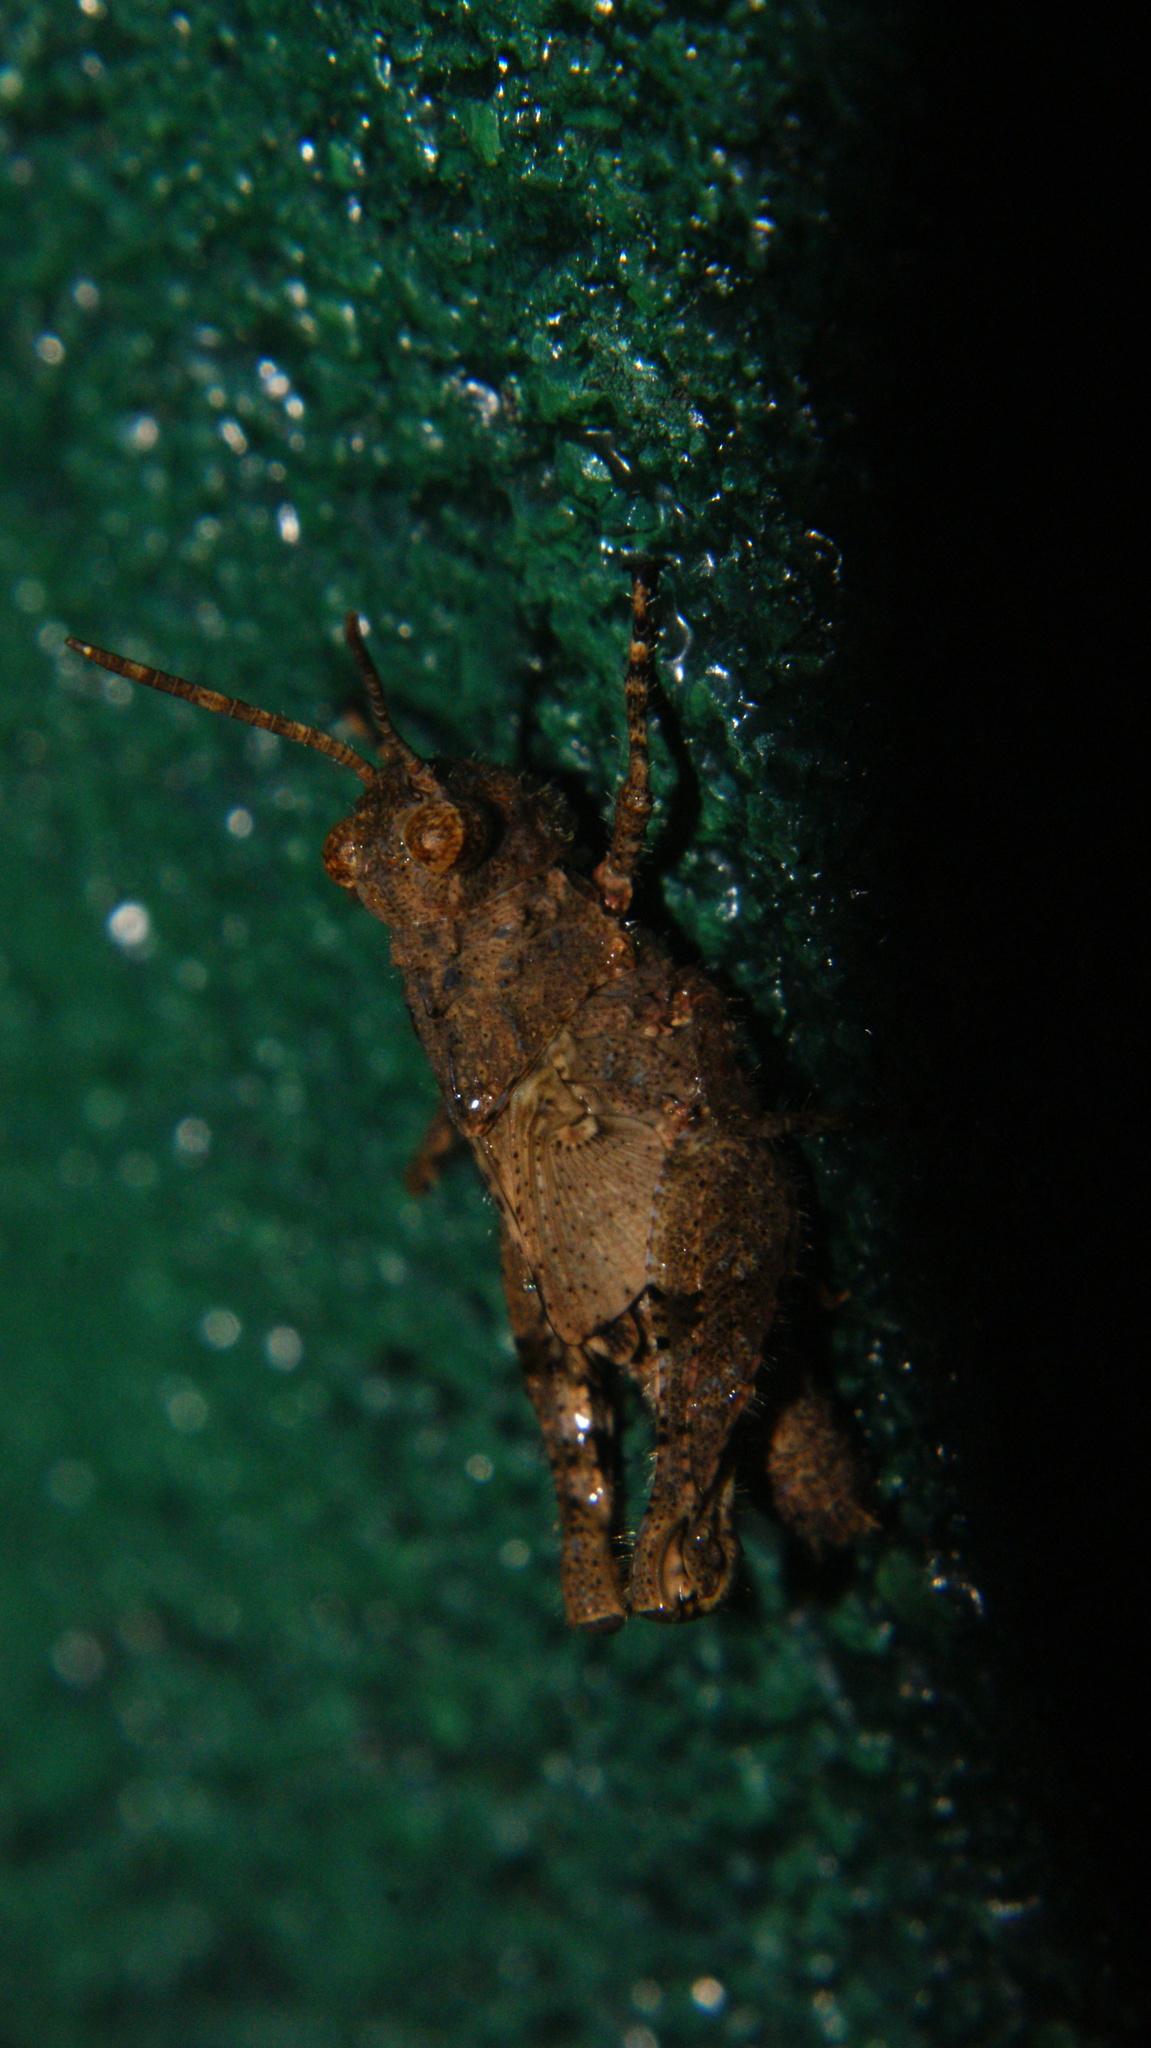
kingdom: Animalia
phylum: Arthropoda
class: Insecta
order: Orthoptera
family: Acrididae
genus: Trilophidia
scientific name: Trilophidia annulata
